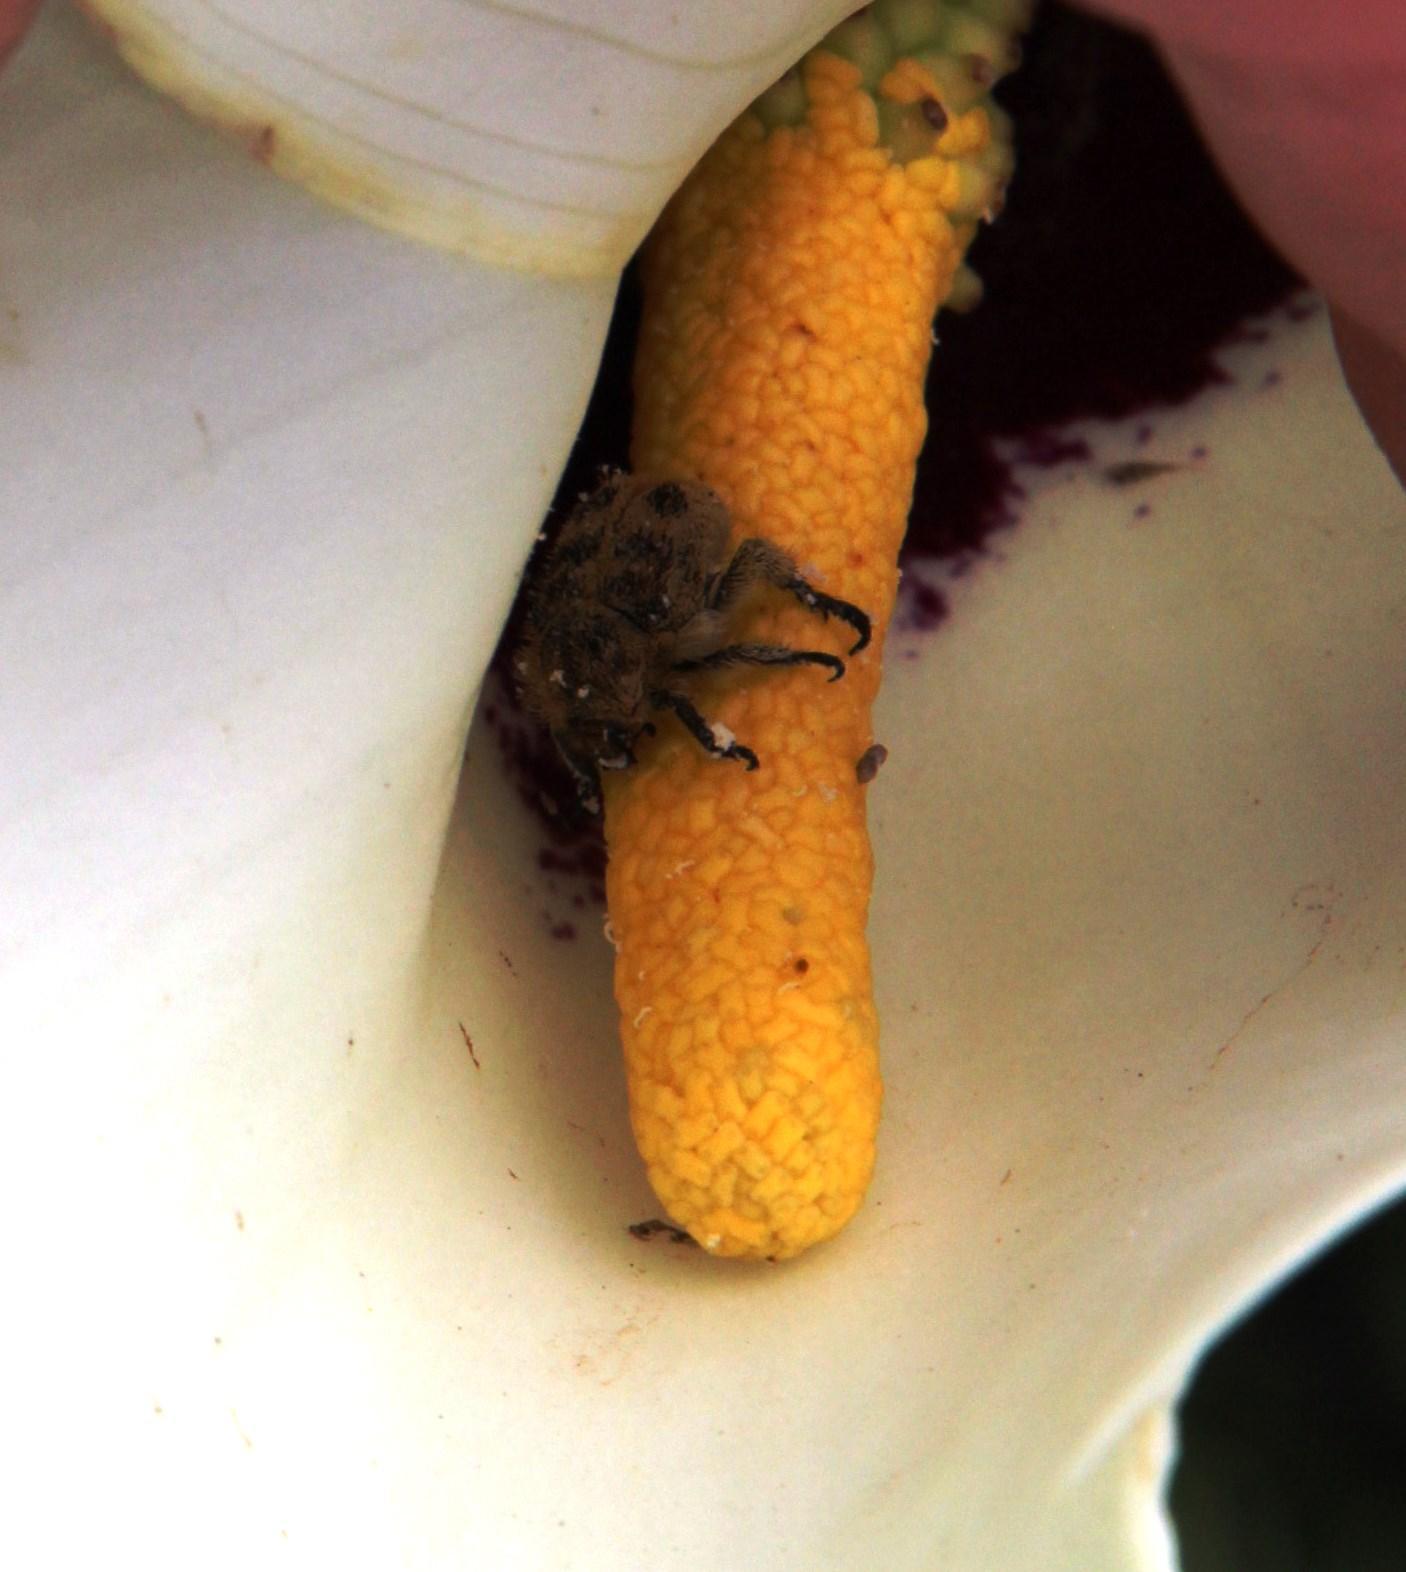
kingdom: Plantae
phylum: Tracheophyta
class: Liliopsida
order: Alismatales
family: Araceae
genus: Zantedeschia
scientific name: Zantedeschia albomaculata
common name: Spotted calla lily
